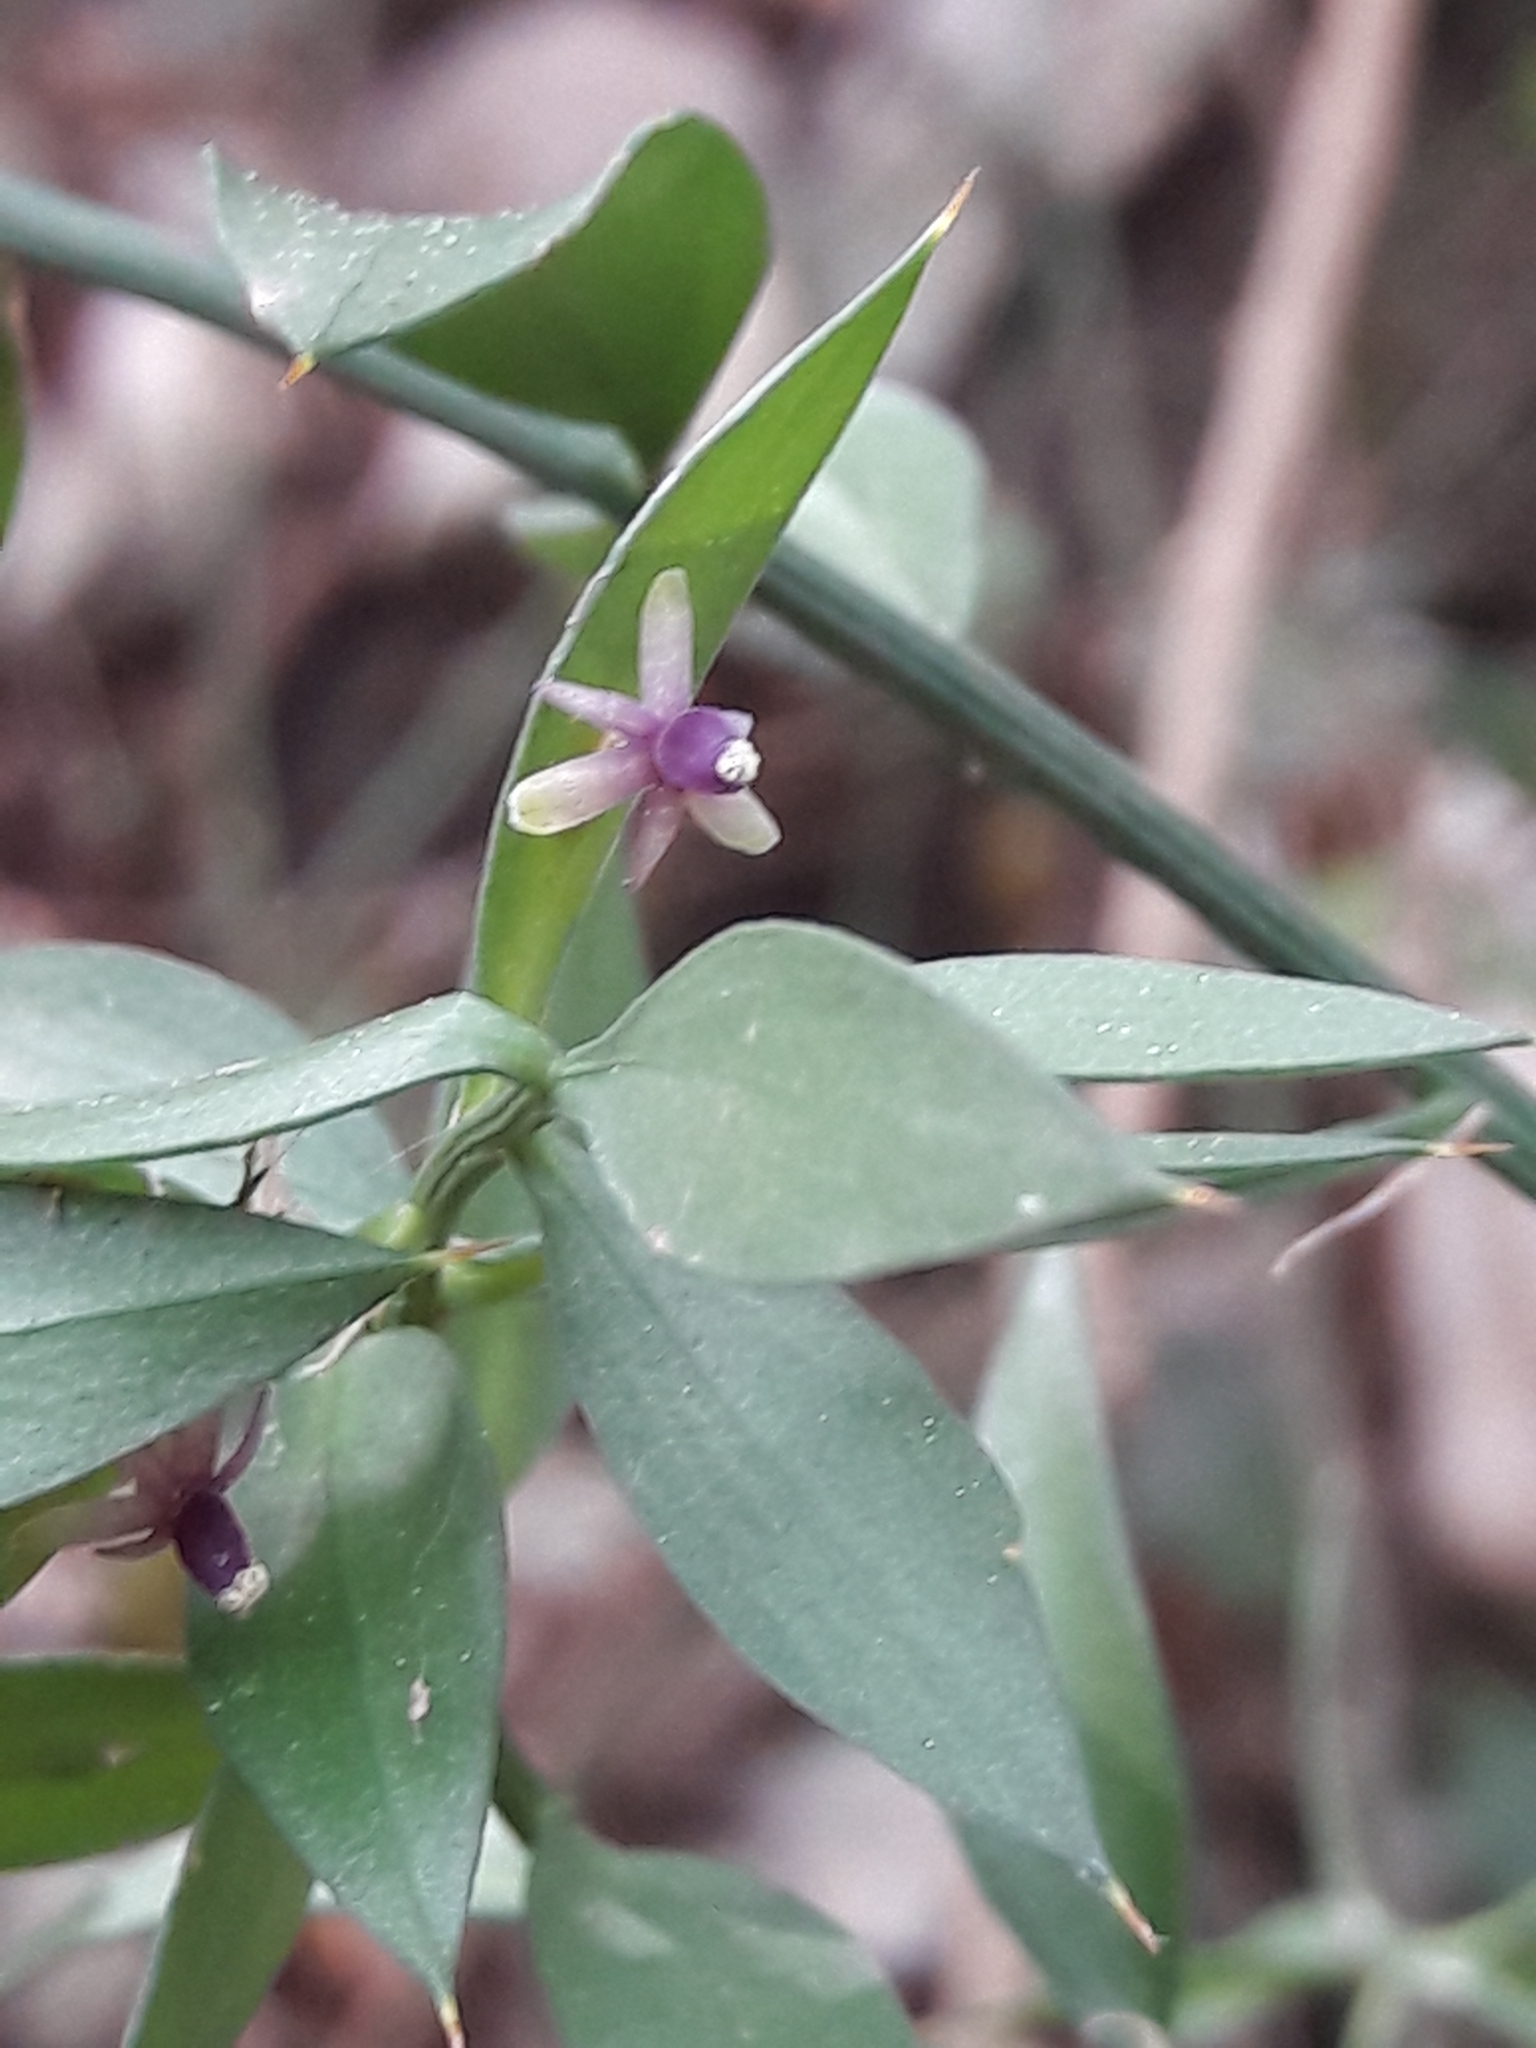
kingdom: Plantae
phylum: Tracheophyta
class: Liliopsida
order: Asparagales
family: Asparagaceae
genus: Ruscus
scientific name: Ruscus aculeatus
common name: Butcher's-broom
